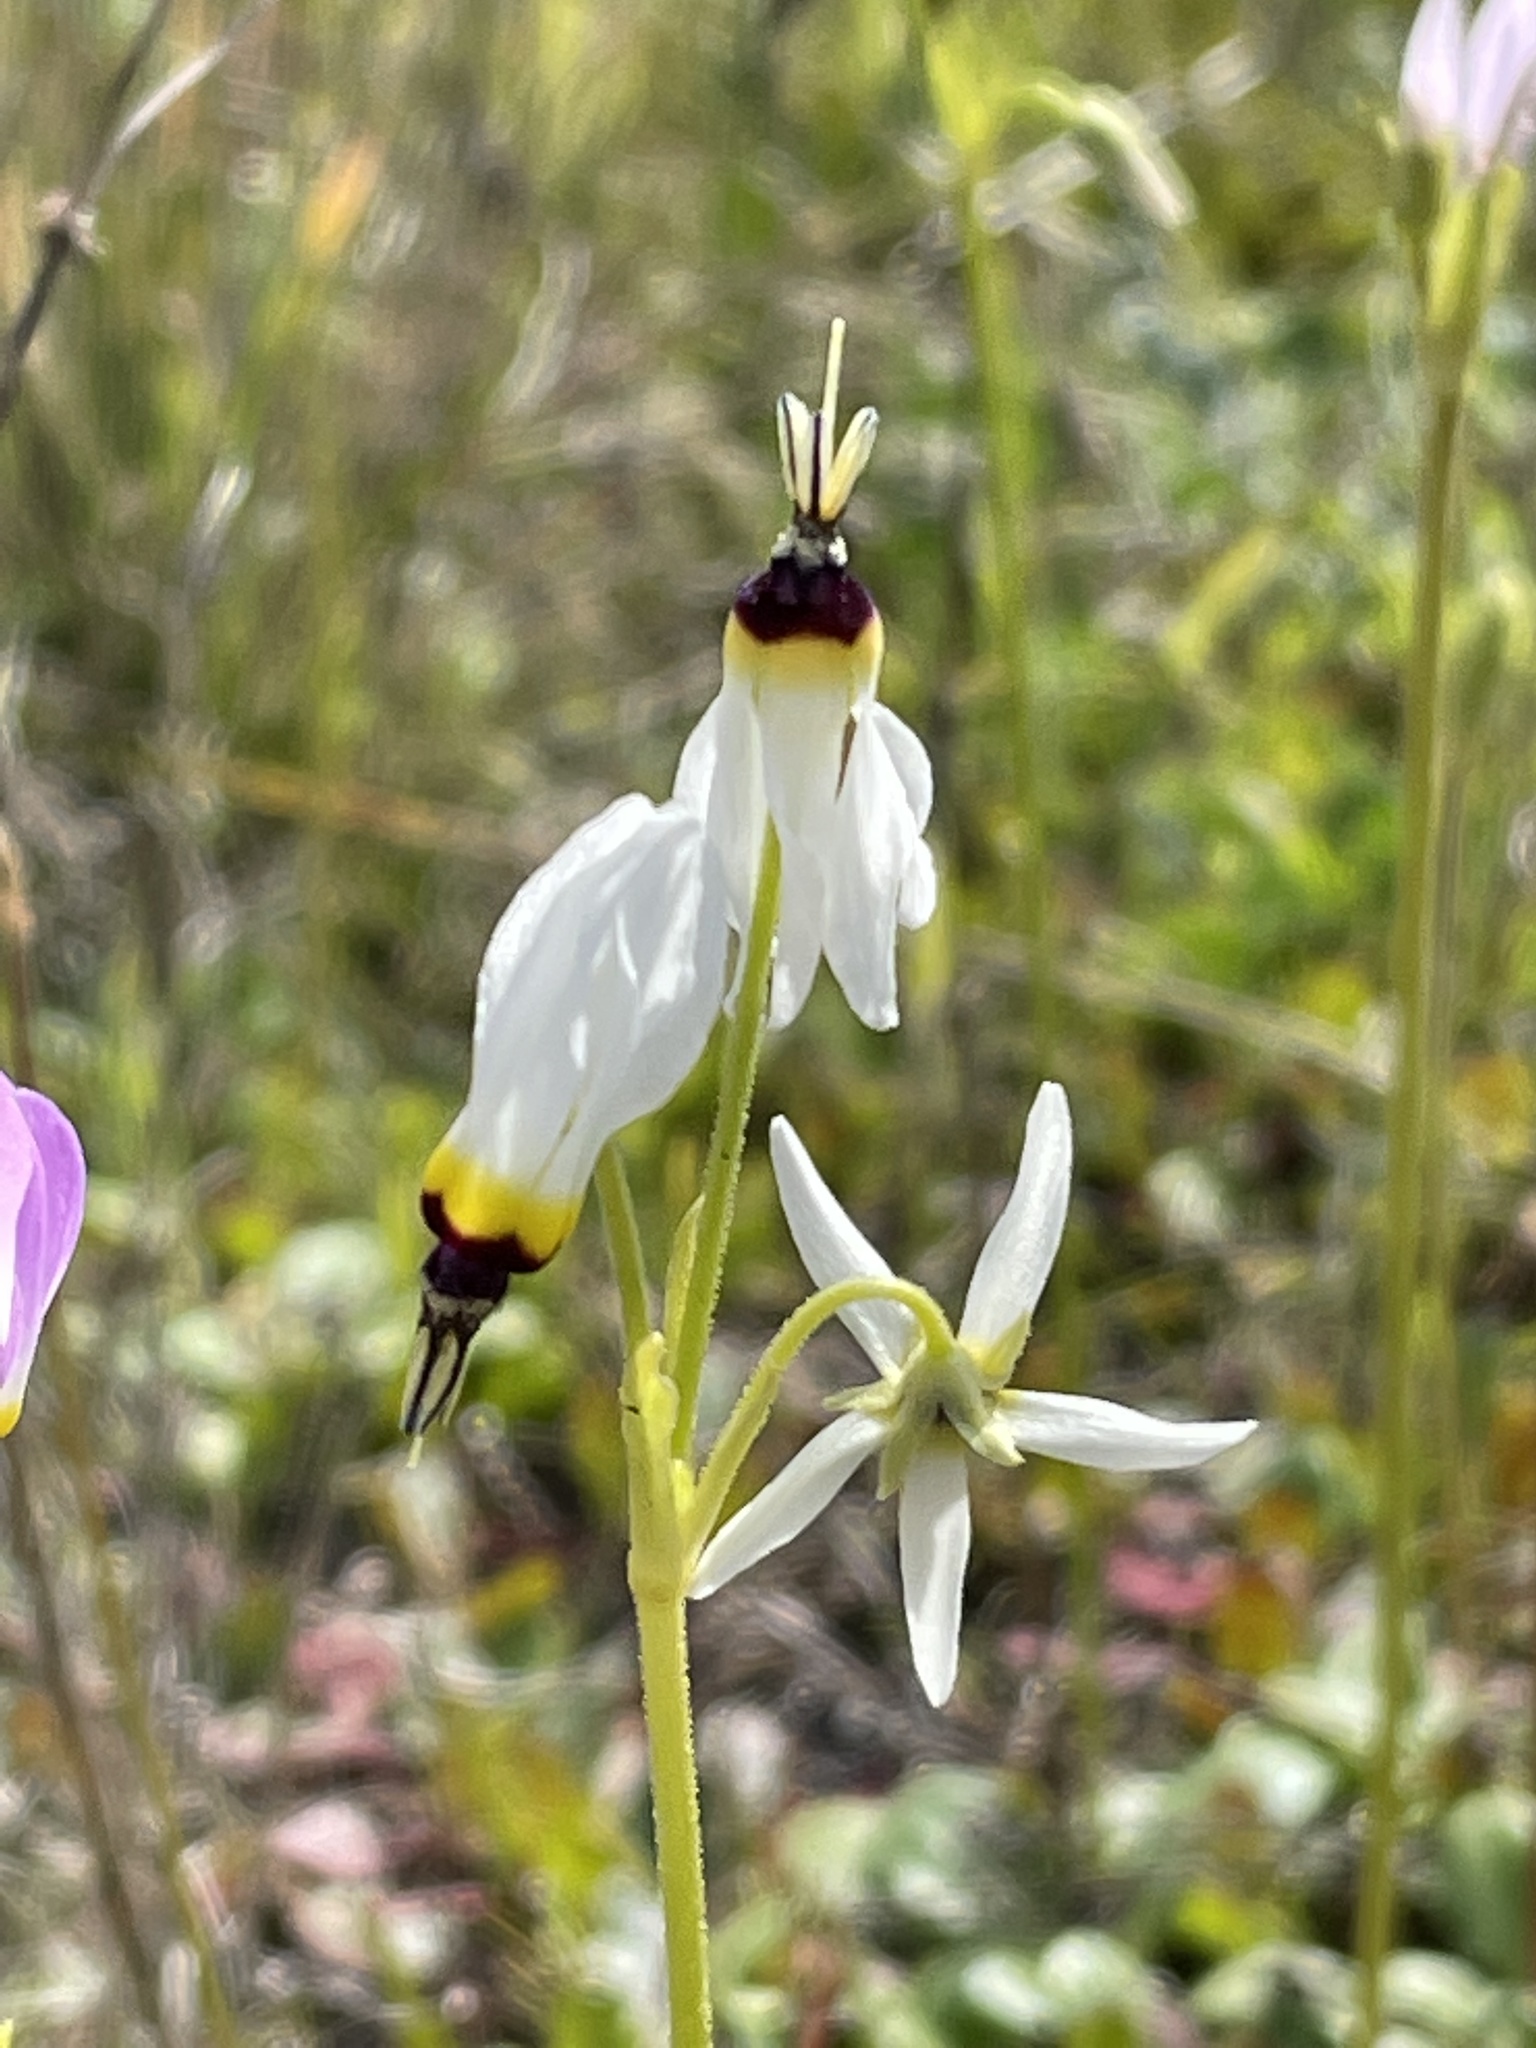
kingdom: Plantae
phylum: Tracheophyta
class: Magnoliopsida
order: Ericales
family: Primulaceae
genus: Dodecatheon
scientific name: Dodecatheon clevelandii
